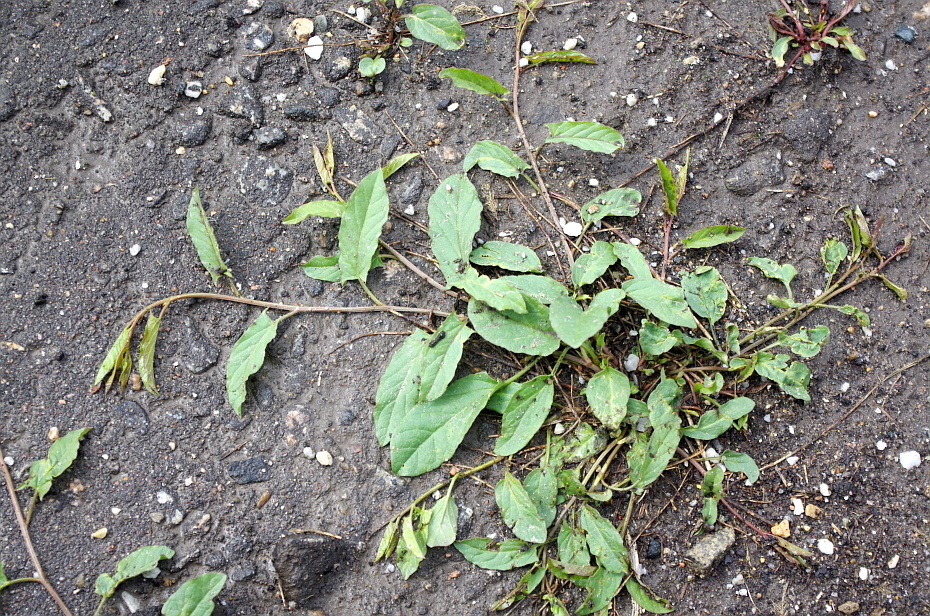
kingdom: Plantae
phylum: Tracheophyta
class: Magnoliopsida
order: Solanales
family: Convolvulaceae
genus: Convolvulus
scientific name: Convolvulus arvensis
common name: Field bindweed
